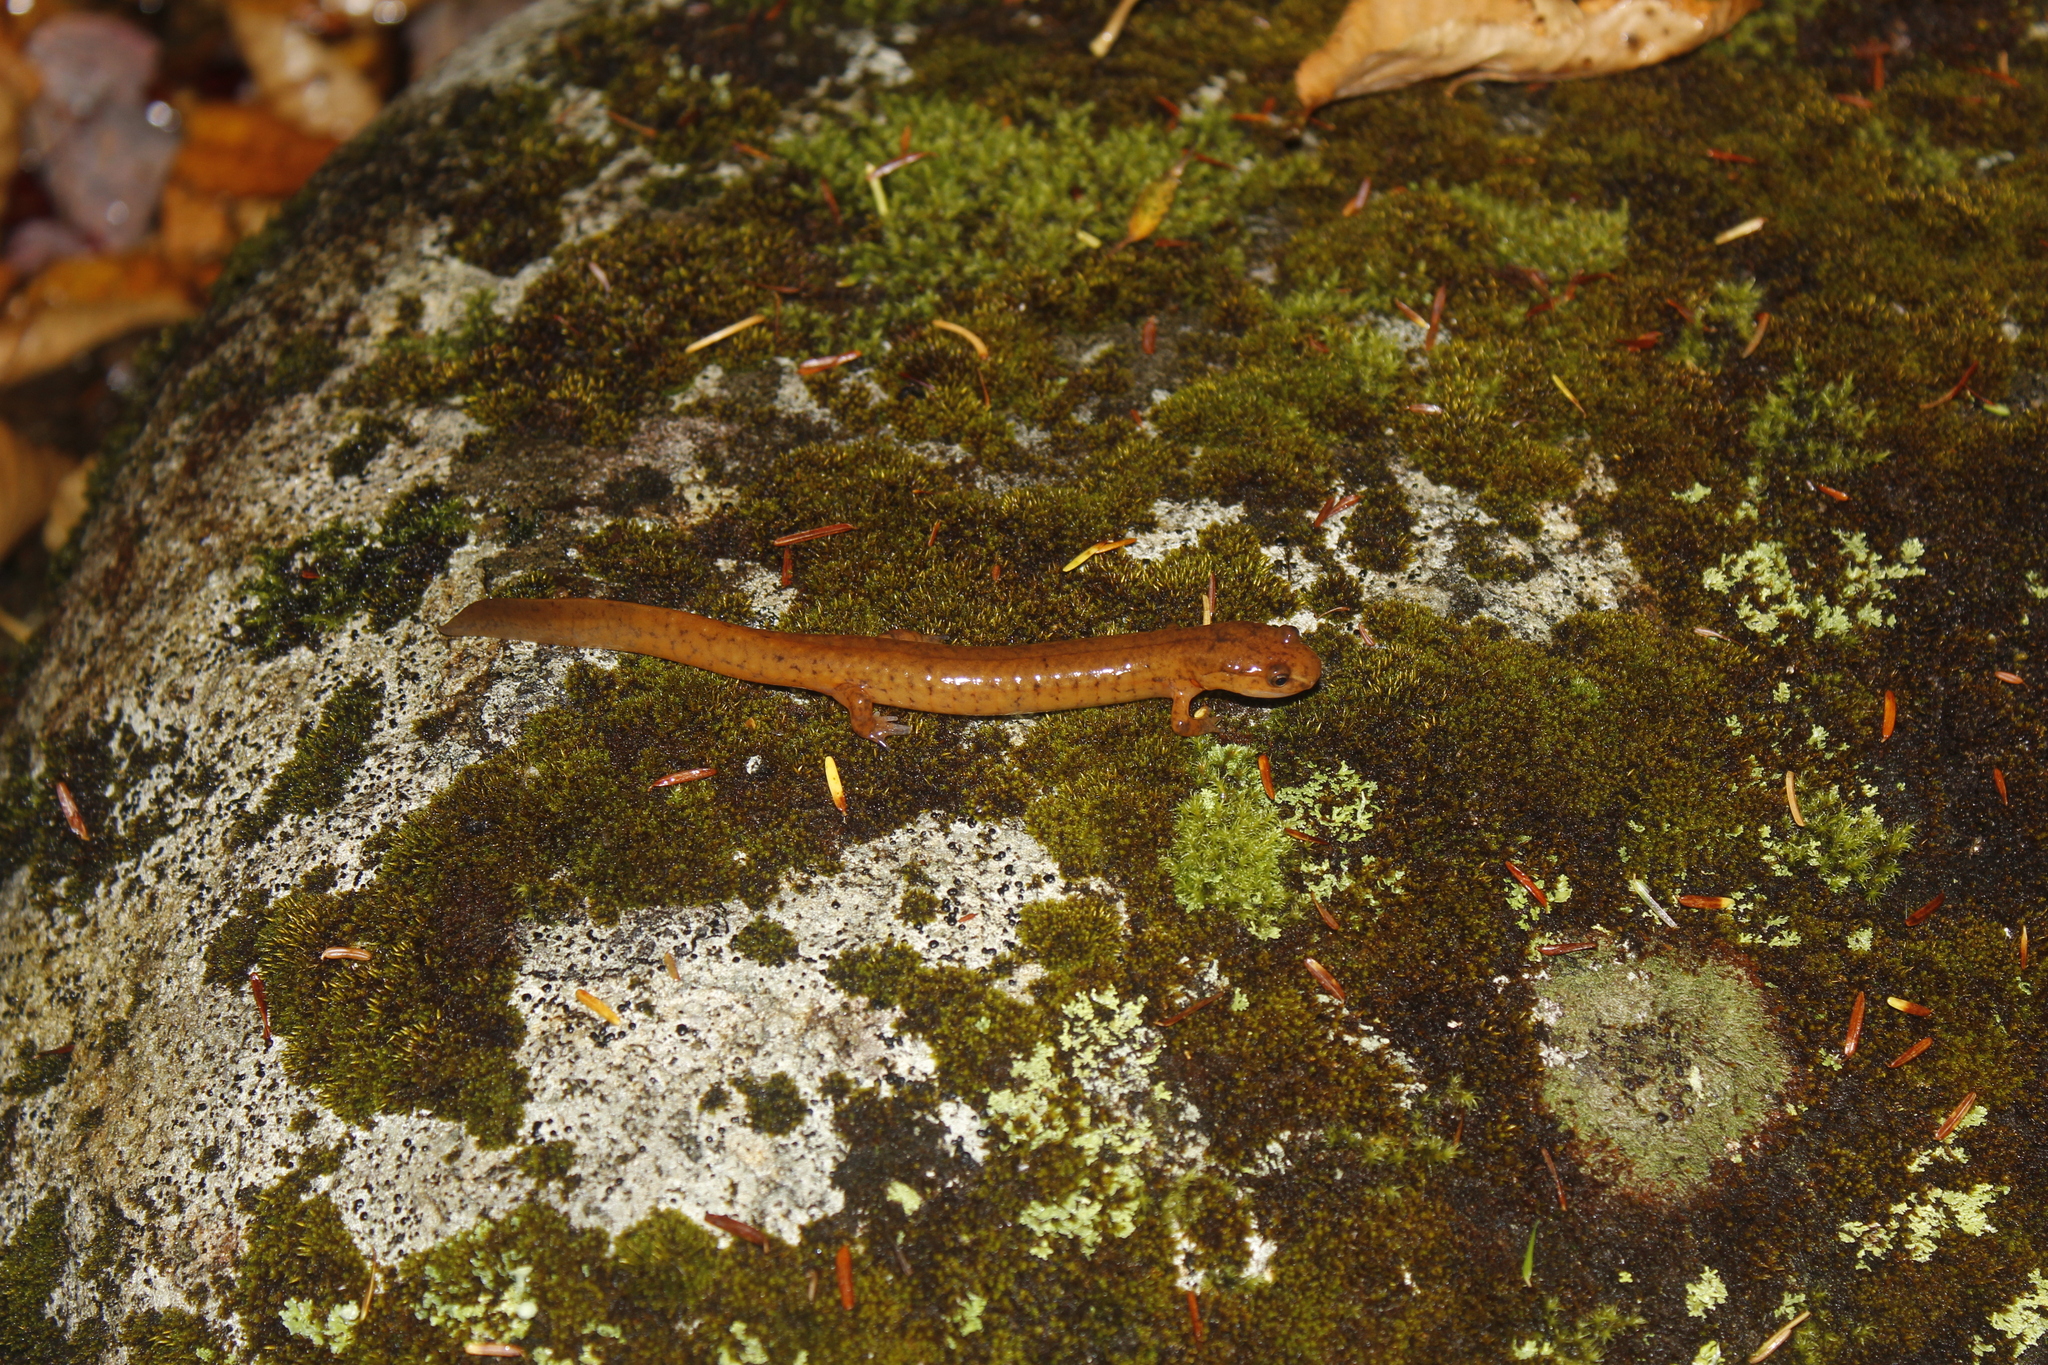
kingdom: Animalia
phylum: Chordata
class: Amphibia
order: Caudata
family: Plethodontidae
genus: Gyrinophilus
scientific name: Gyrinophilus porphyriticus
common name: Spring salamander
